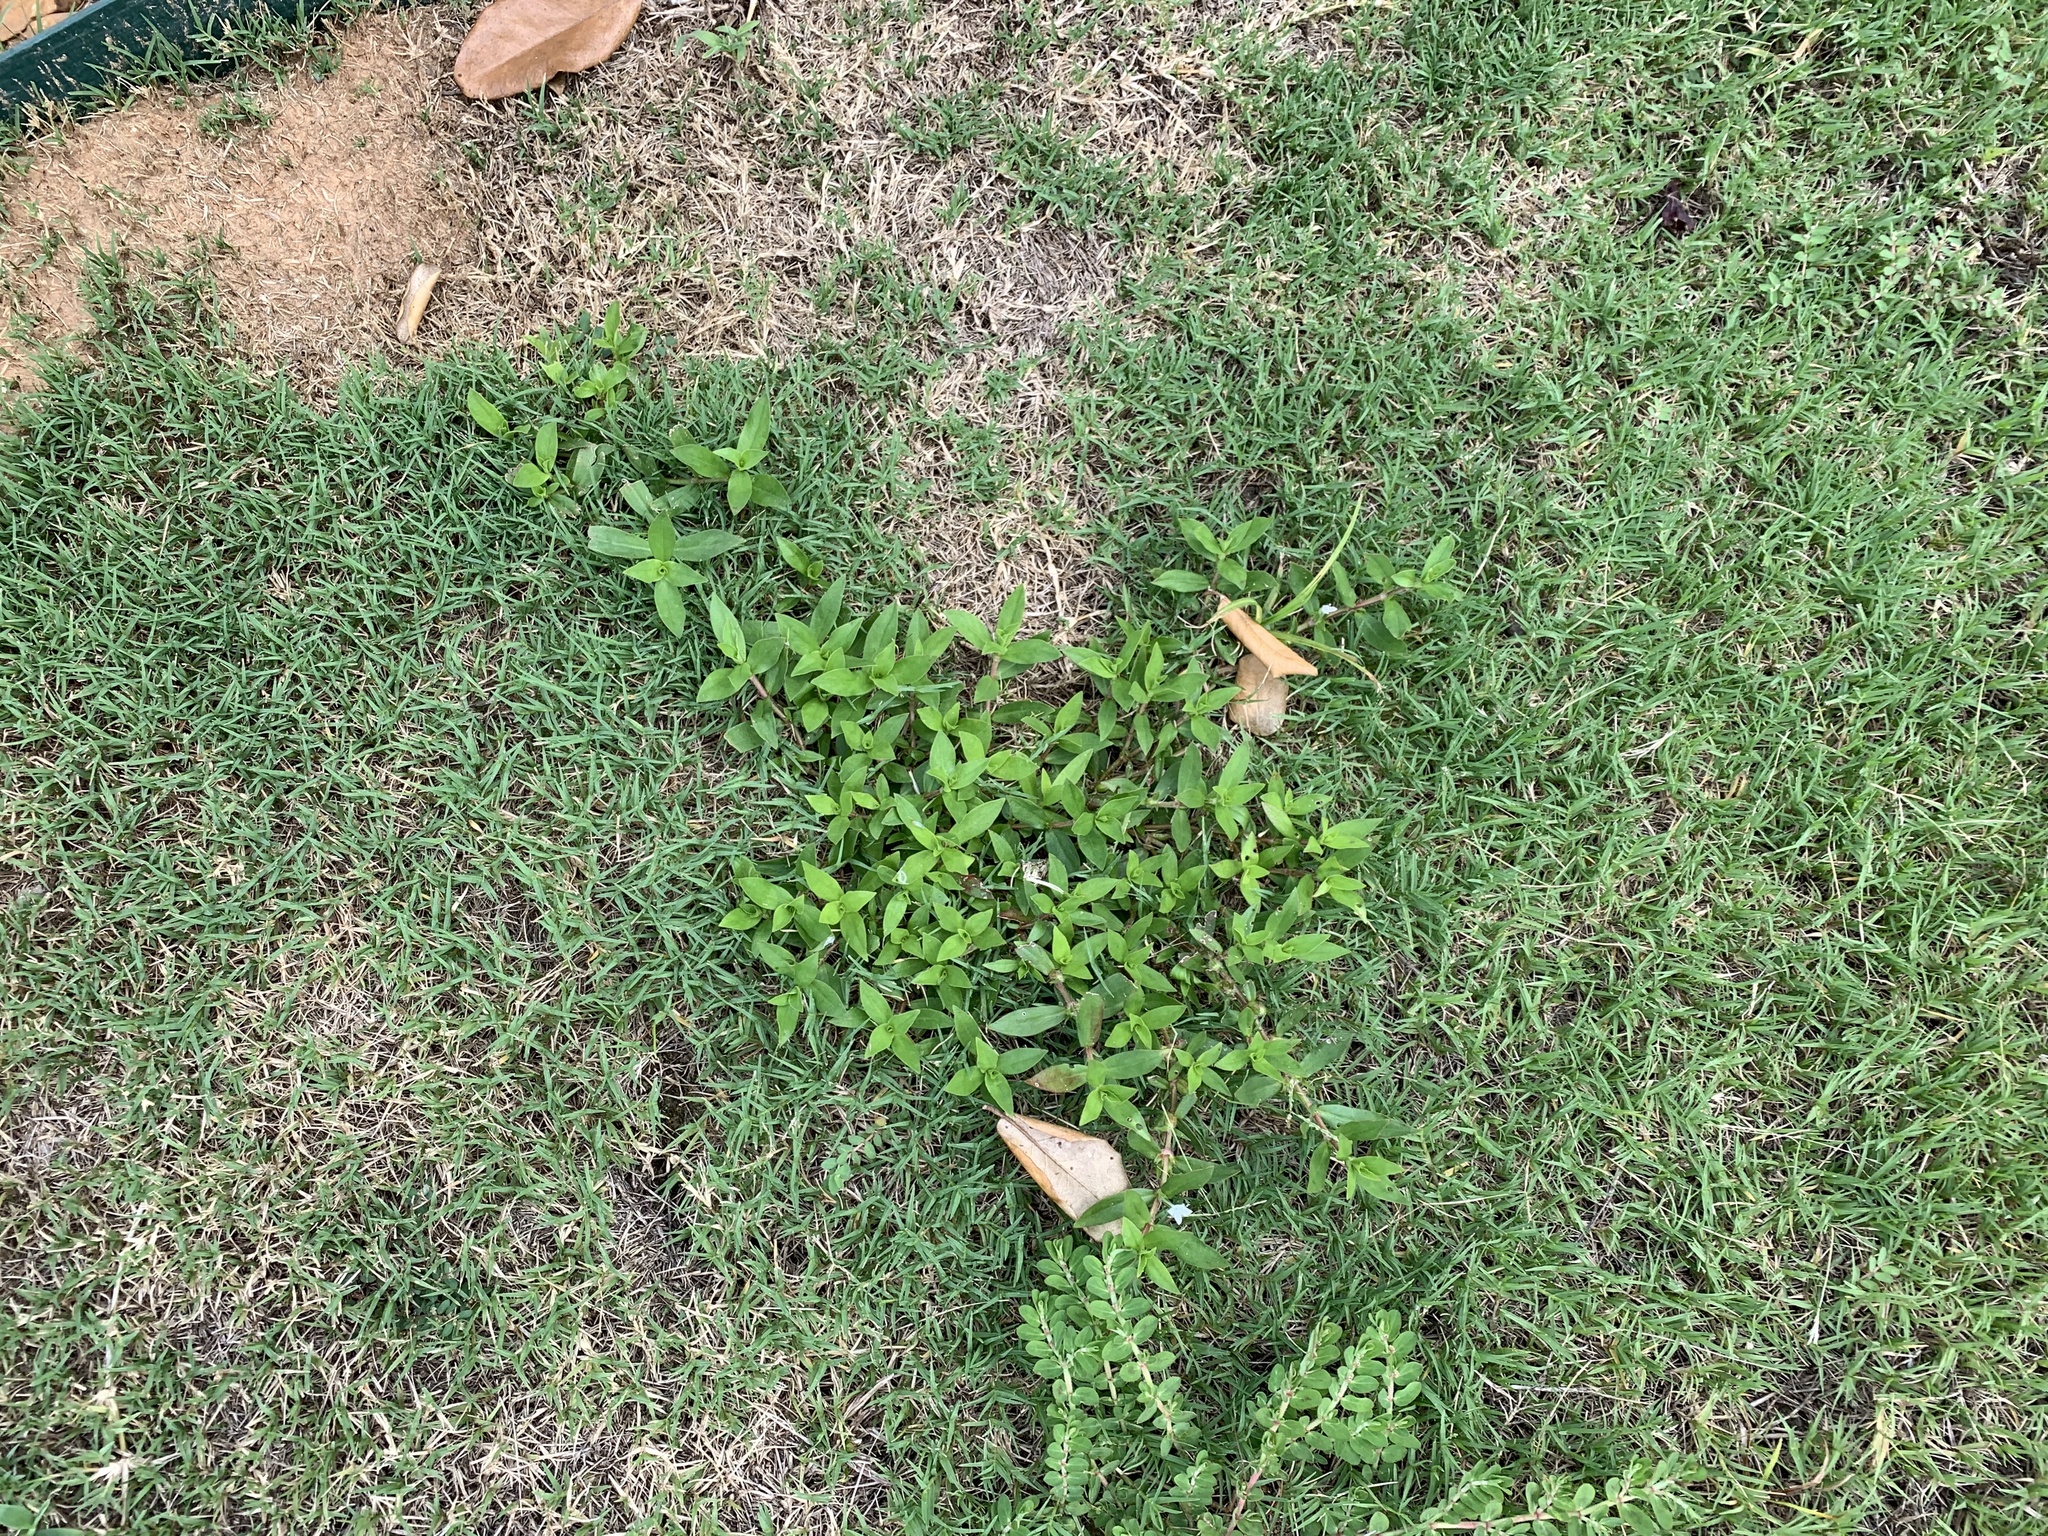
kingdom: Plantae
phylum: Tracheophyta
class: Magnoliopsida
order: Gentianales
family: Rubiaceae
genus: Diodia
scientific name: Diodia virginiana
